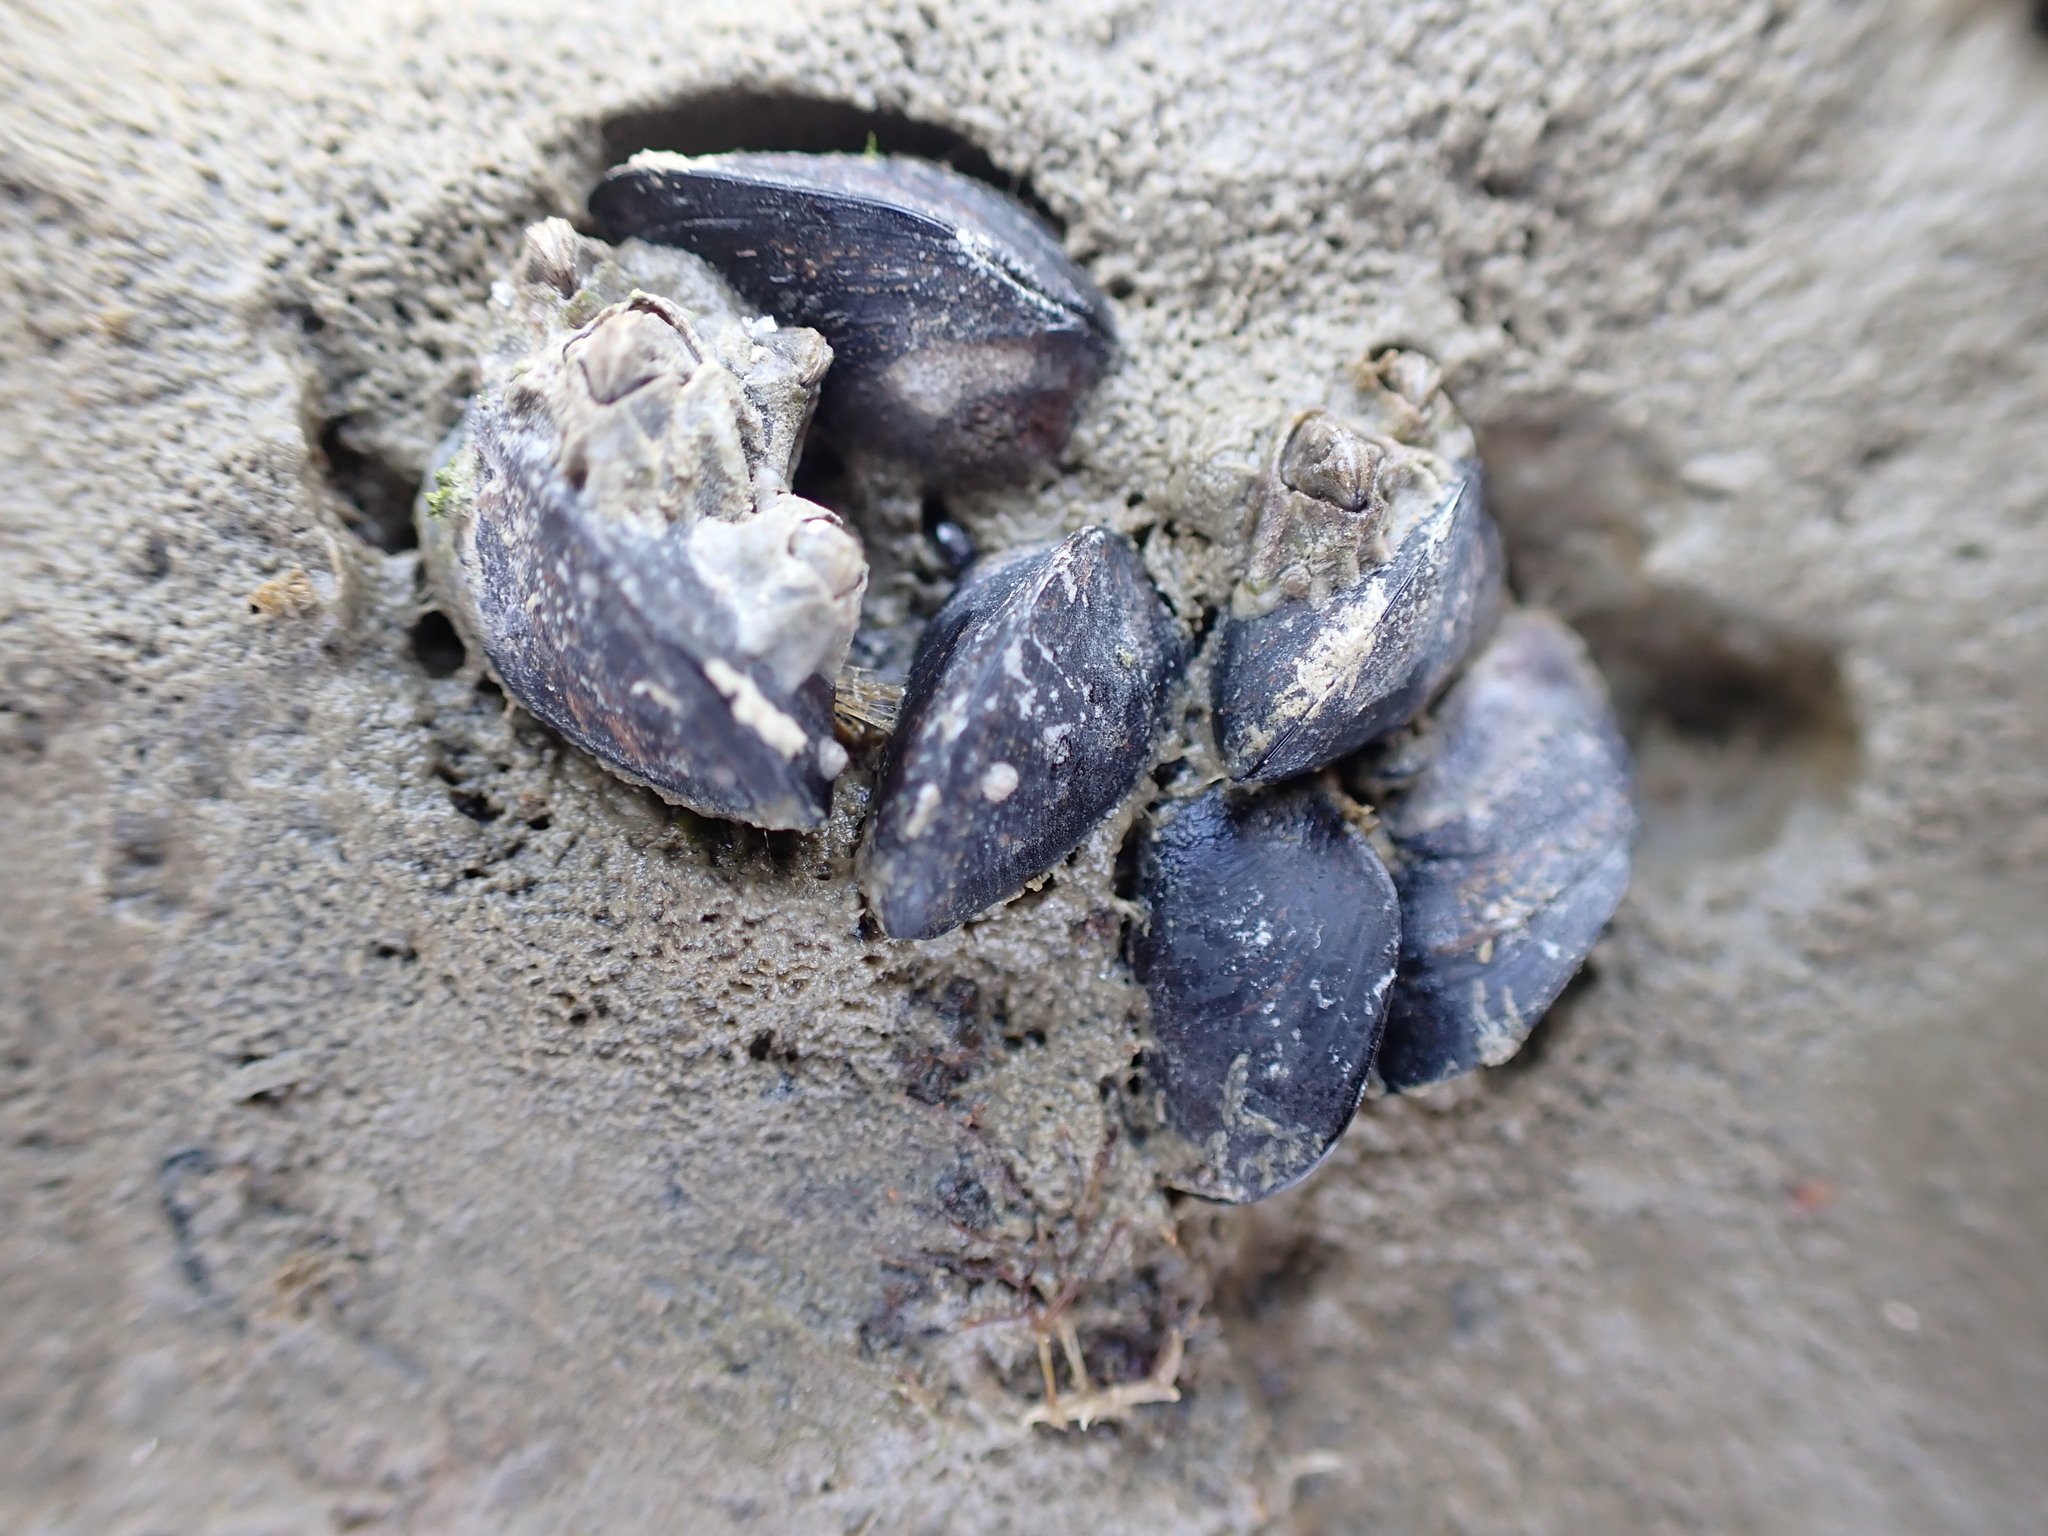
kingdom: Animalia
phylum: Mollusca
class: Bivalvia
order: Mytilida
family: Mytilidae
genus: Xenostrobus
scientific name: Xenostrobus neozelanicus
